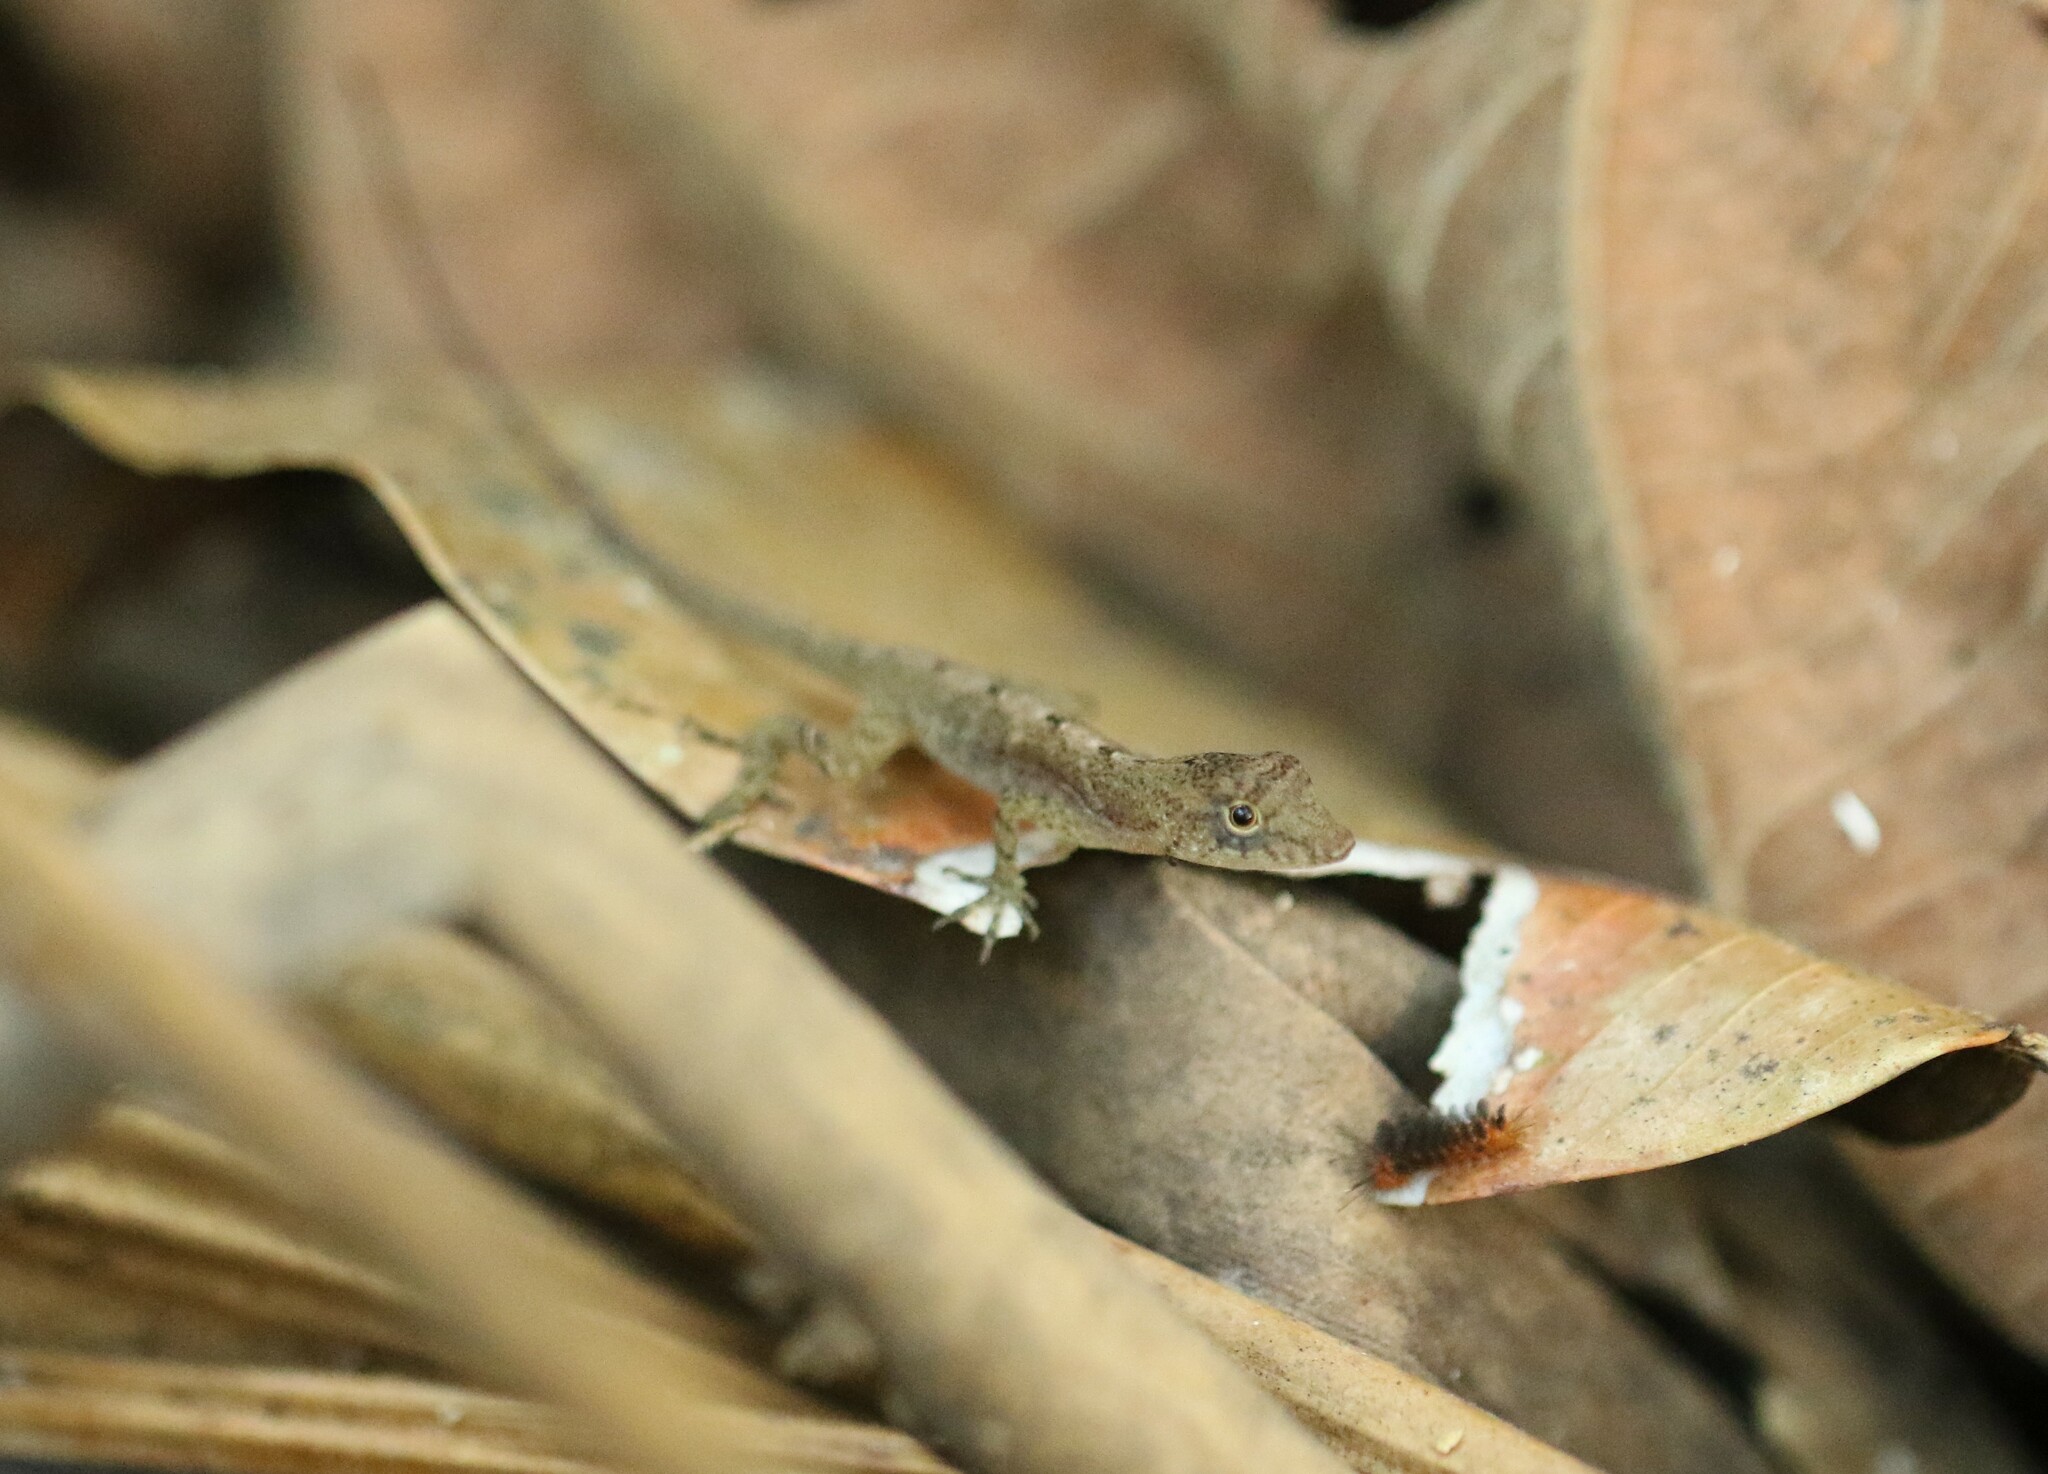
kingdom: Animalia
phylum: Chordata
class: Squamata
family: Dactyloidae
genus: Anolis
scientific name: Anolis polylepis
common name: Many-scaled anole
